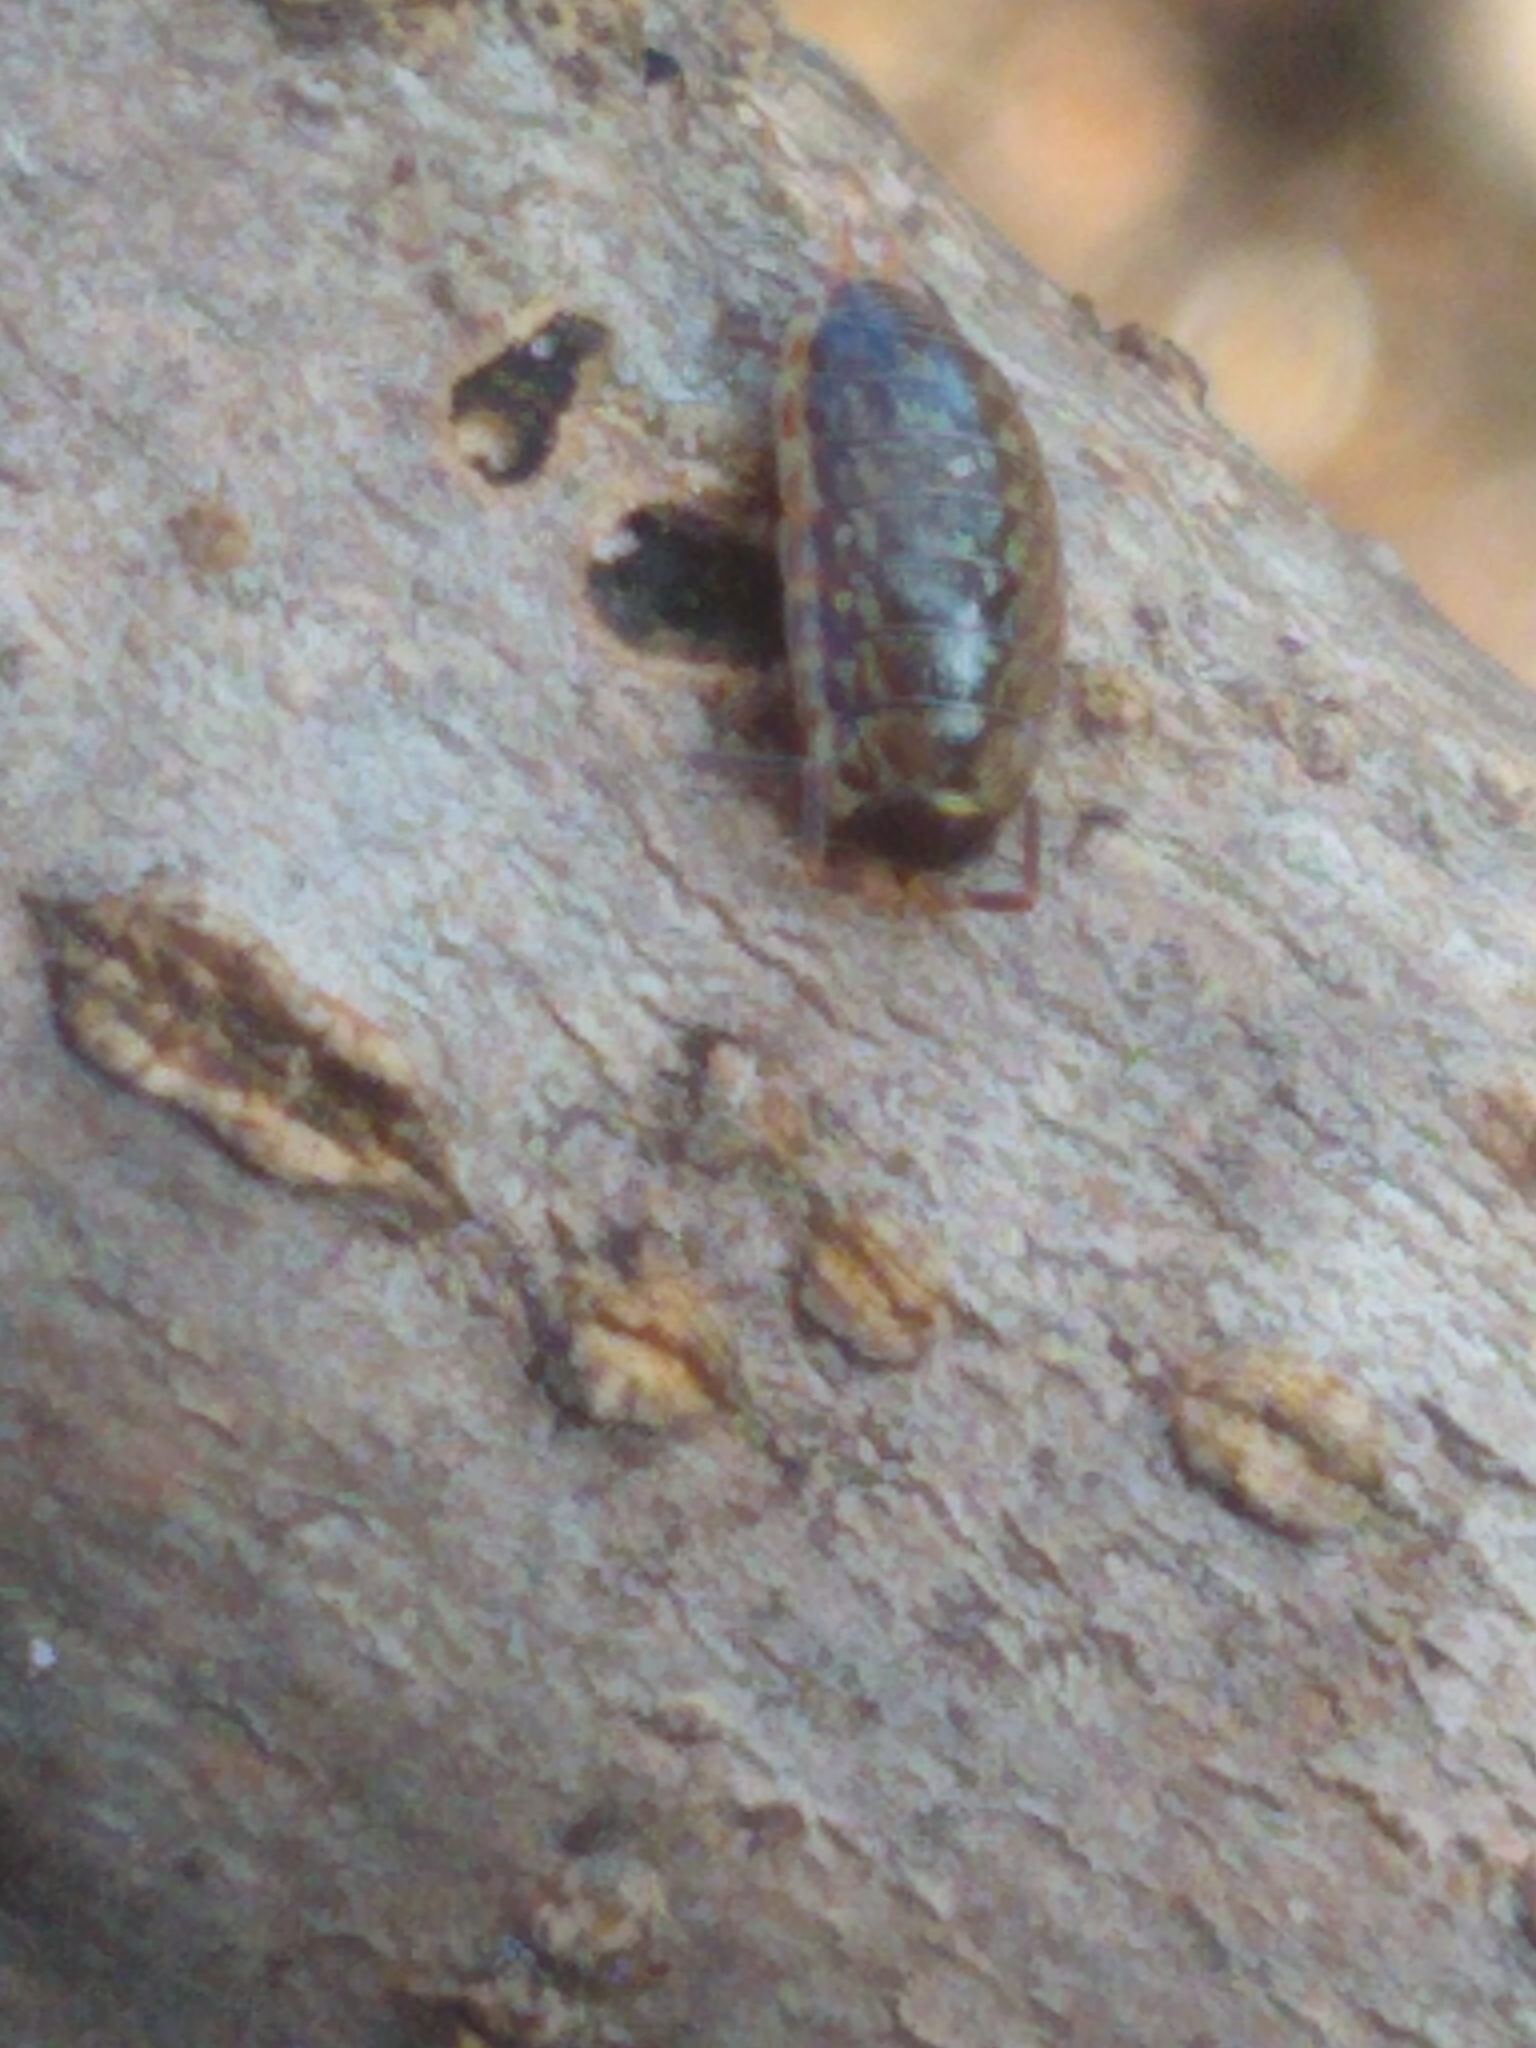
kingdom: Animalia
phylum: Arthropoda
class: Malacostraca
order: Isopoda
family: Philosciidae
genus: Philoscia
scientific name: Philoscia muscorum
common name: Common striped woodlouse
